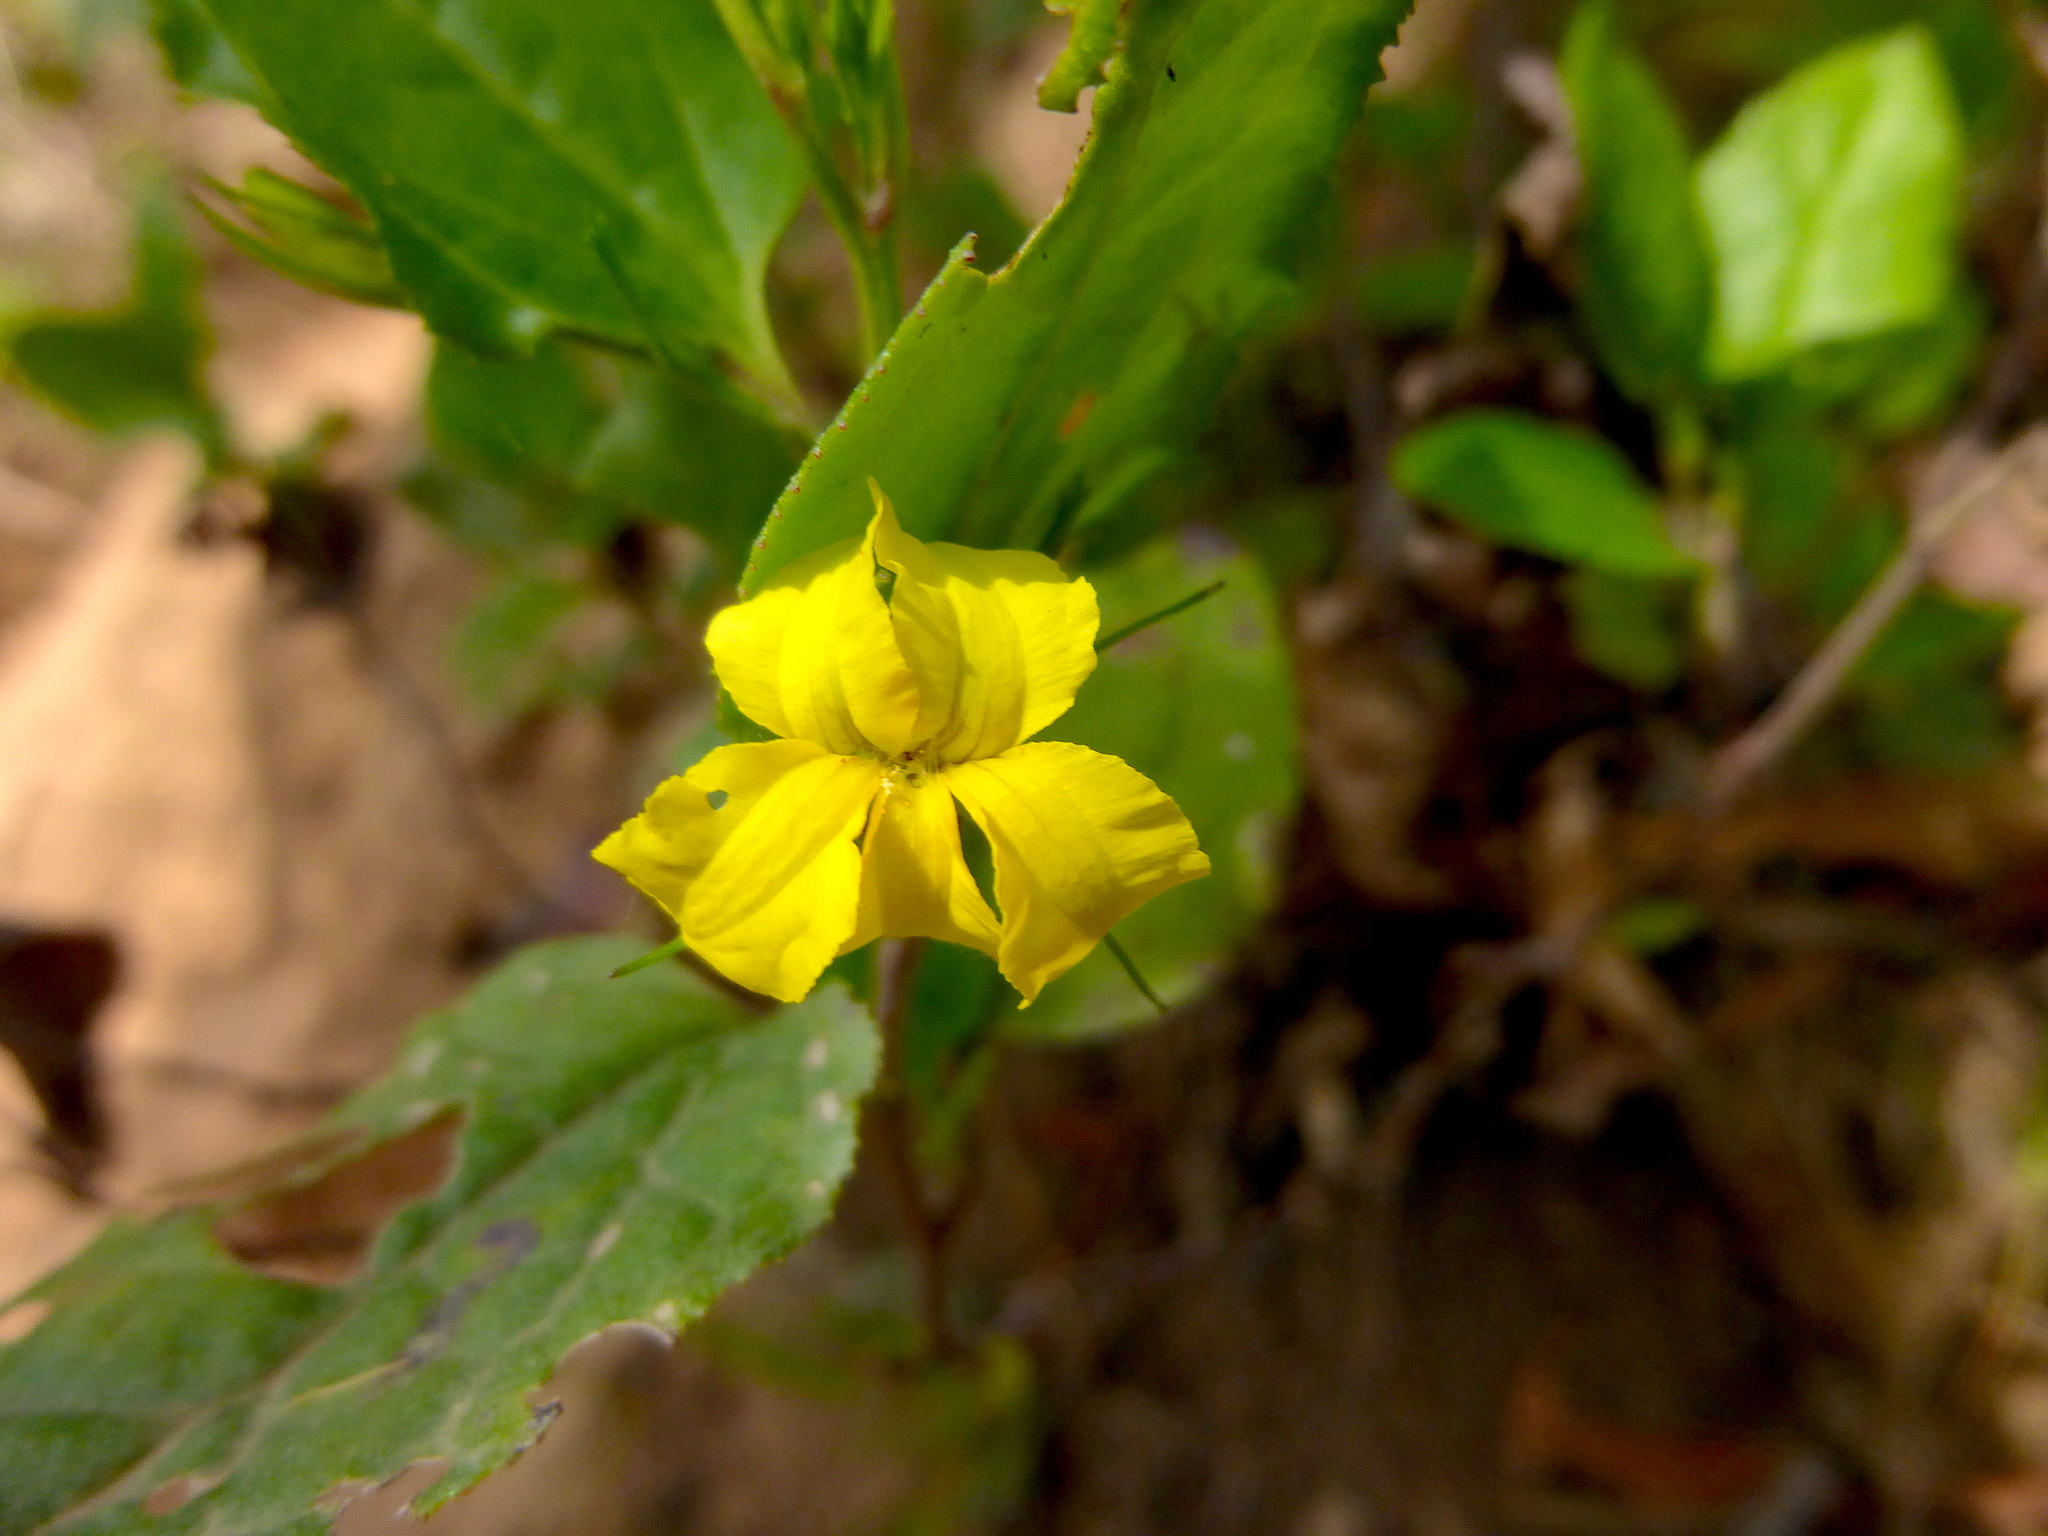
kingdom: Plantae
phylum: Tracheophyta
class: Magnoliopsida
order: Asterales
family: Goodeniaceae
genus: Goodenia
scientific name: Goodenia ovata
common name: Hop goodenia
